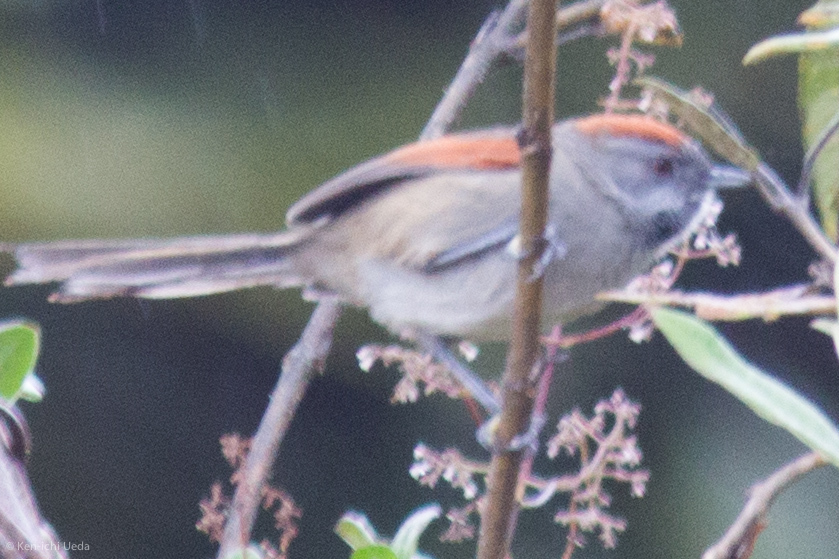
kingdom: Animalia
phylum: Chordata
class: Aves
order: Passeriformes
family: Furnariidae
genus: Synallaxis
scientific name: Synallaxis subpudica
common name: Silvery-throated spinetail
